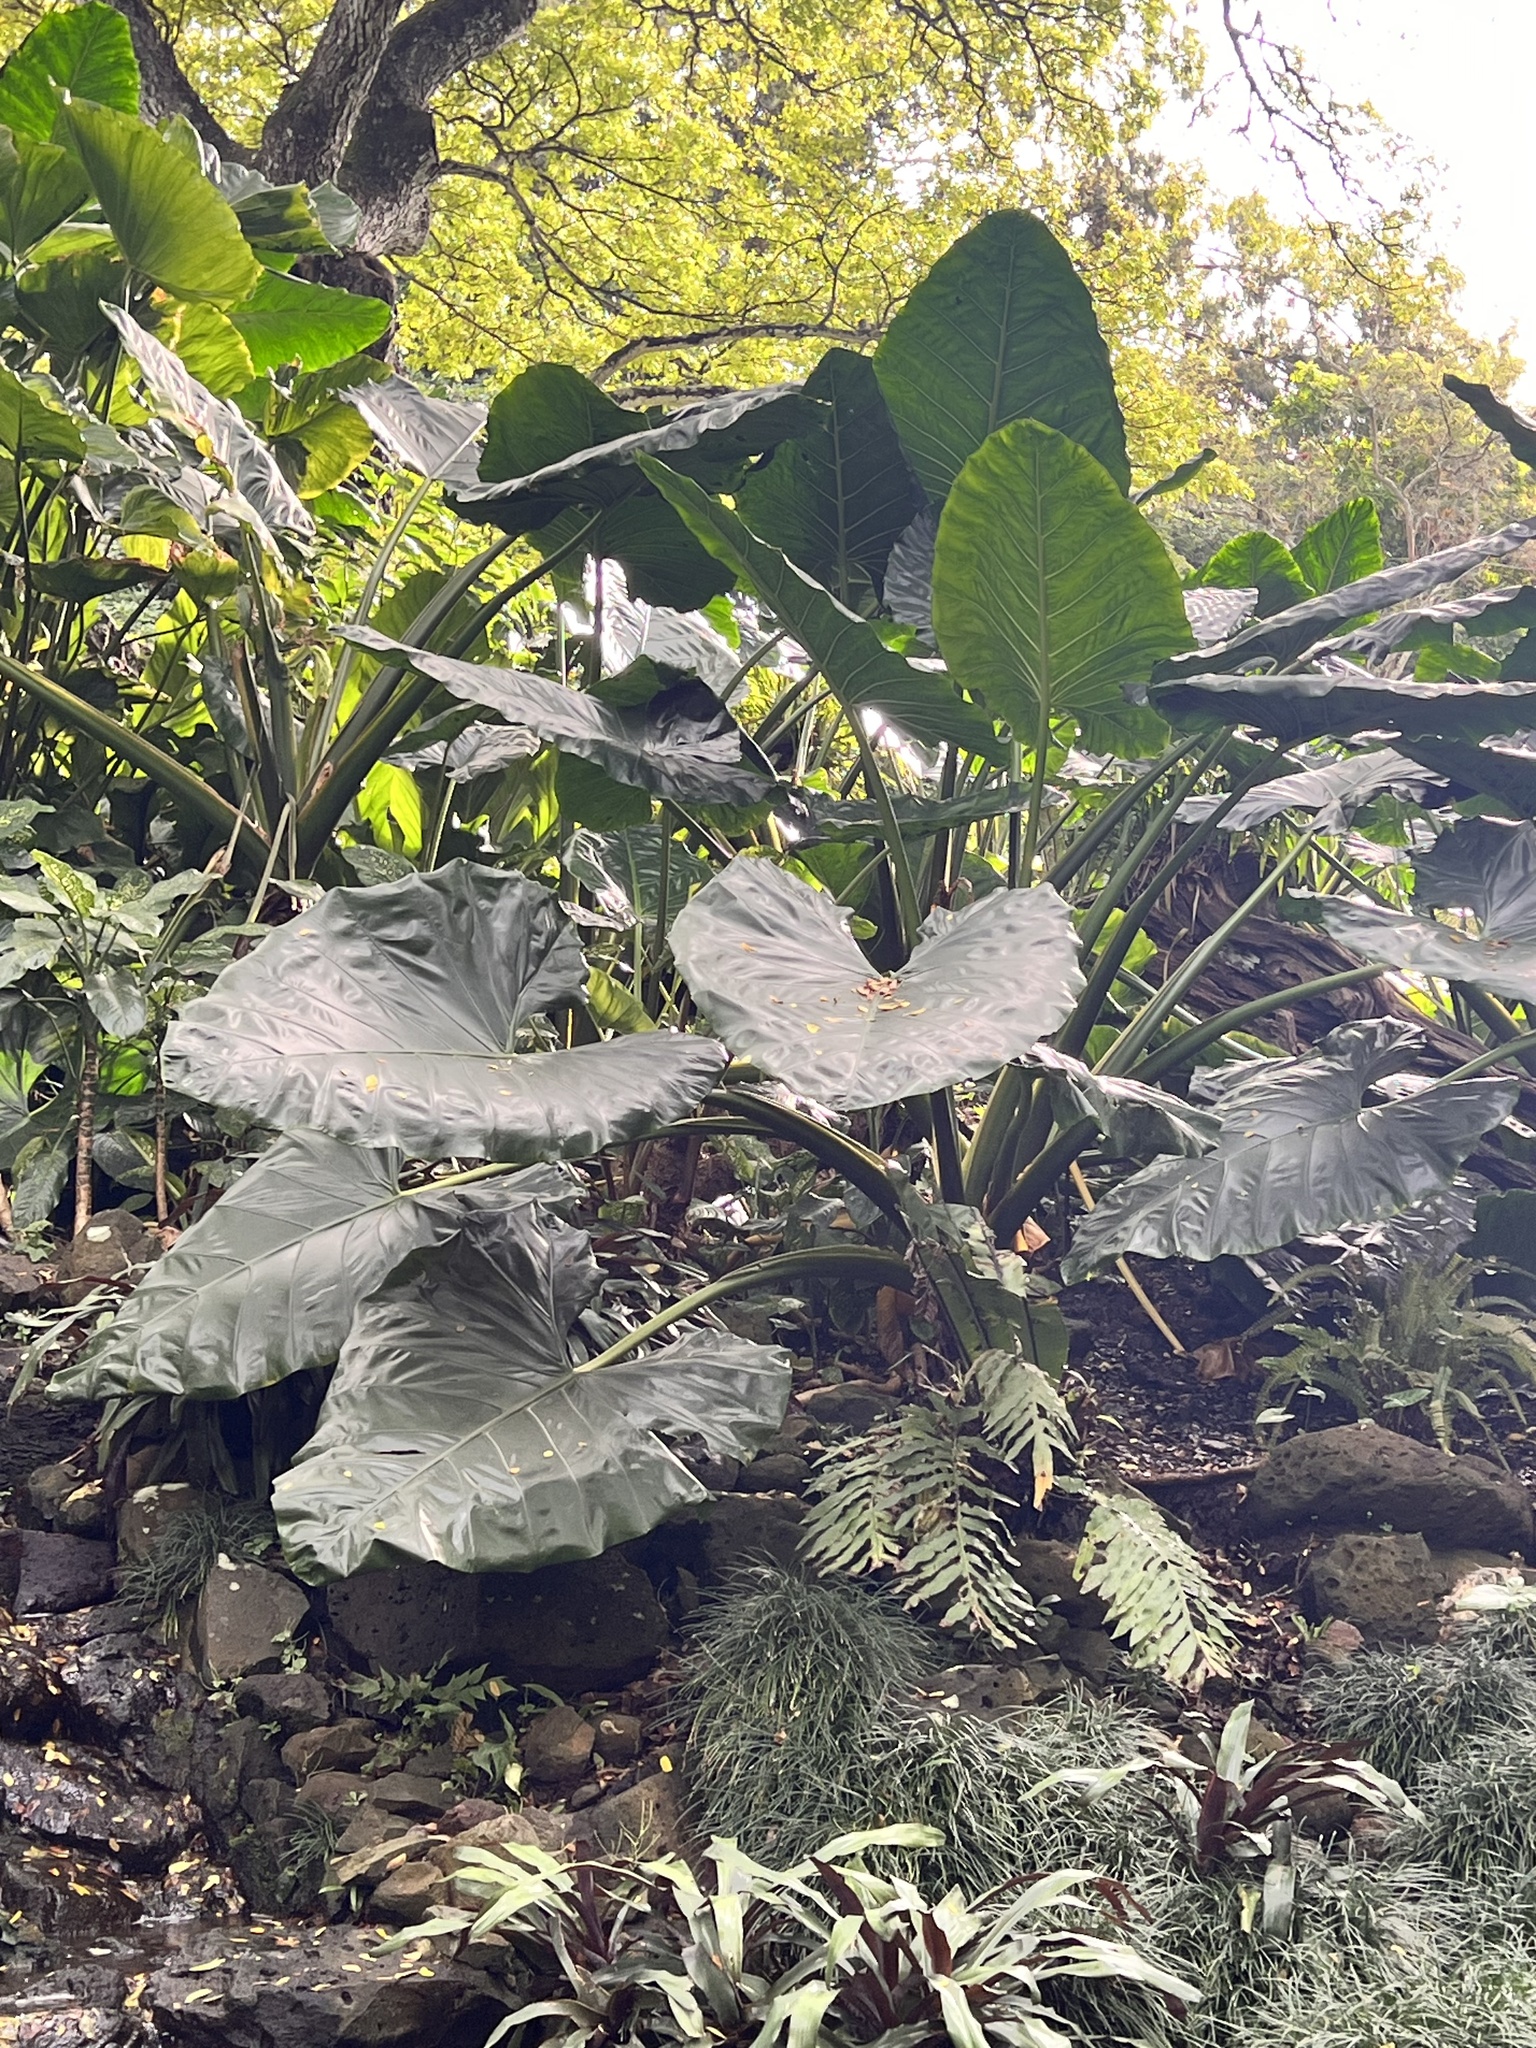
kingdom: Plantae
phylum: Tracheophyta
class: Liliopsida
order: Alismatales
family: Araceae
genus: Alocasia
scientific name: Alocasia macrorrhizos
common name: Giant taro
